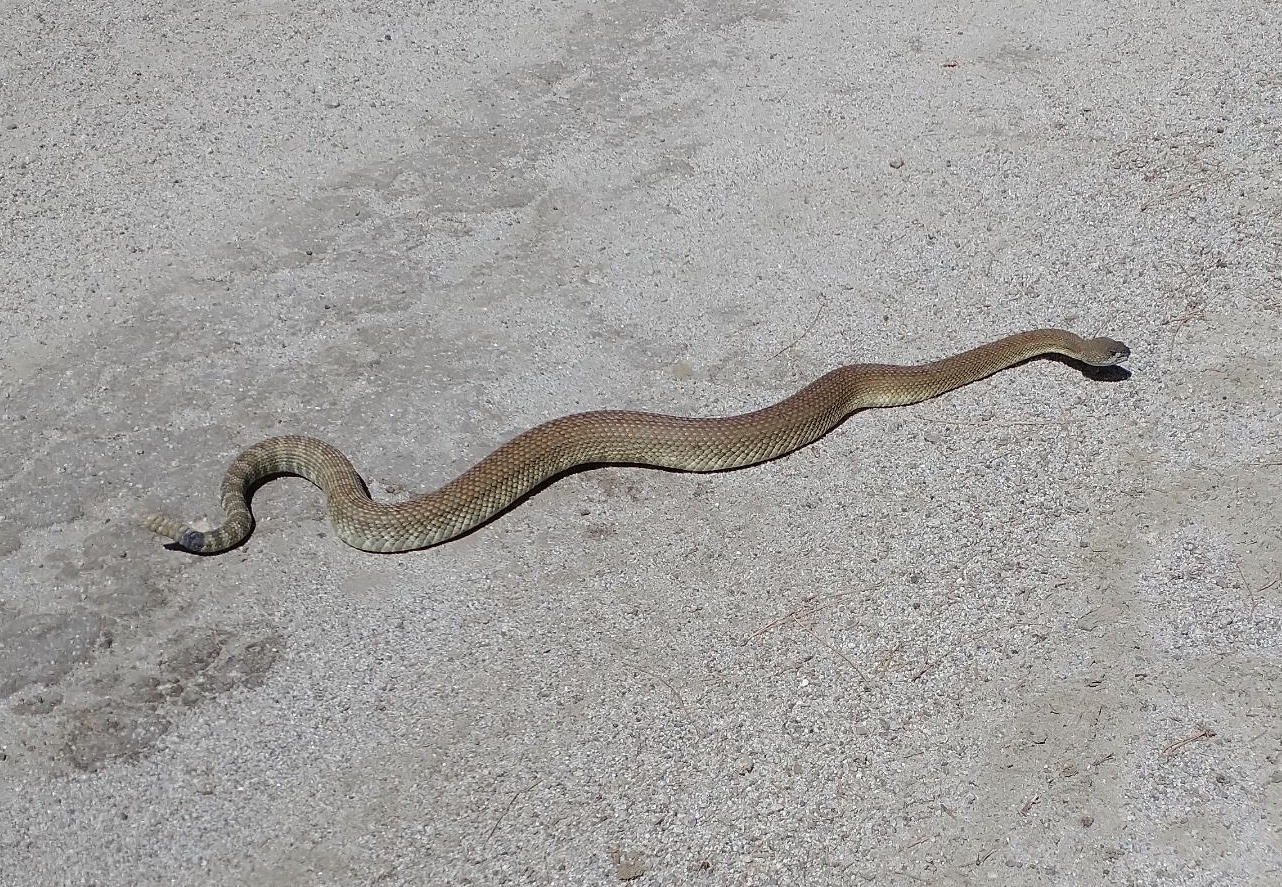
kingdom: Animalia
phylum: Chordata
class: Squamata
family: Viperidae
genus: Crotalus
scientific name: Crotalus oreganus
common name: Abyssus
